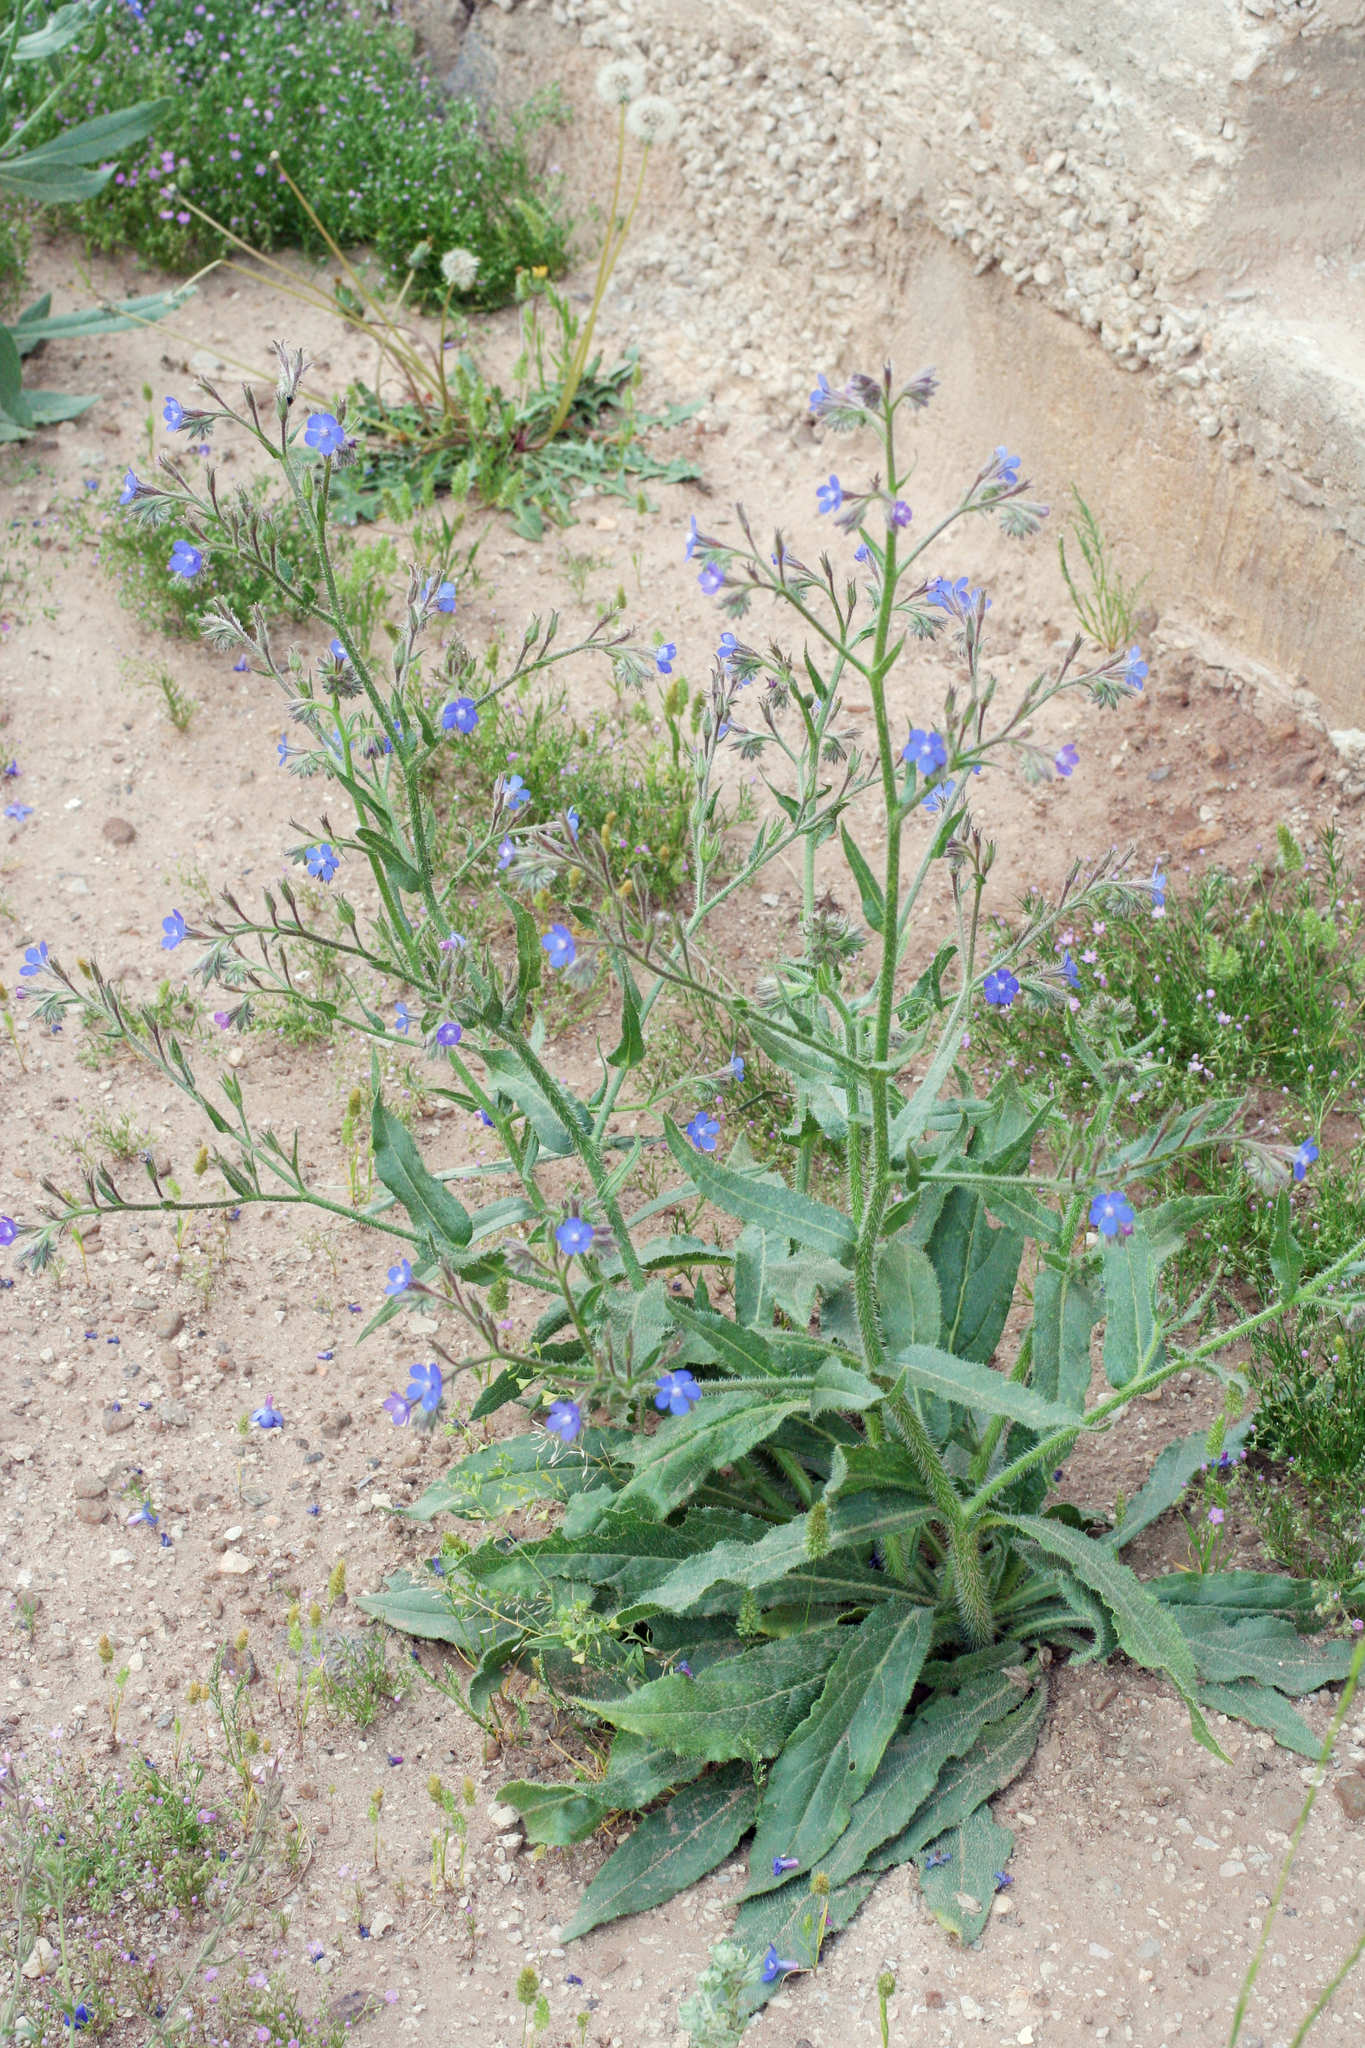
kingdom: Plantae
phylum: Tracheophyta
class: Magnoliopsida
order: Boraginales
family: Boraginaceae
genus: Anchusa
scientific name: Anchusa azurea
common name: Garden anchusa
